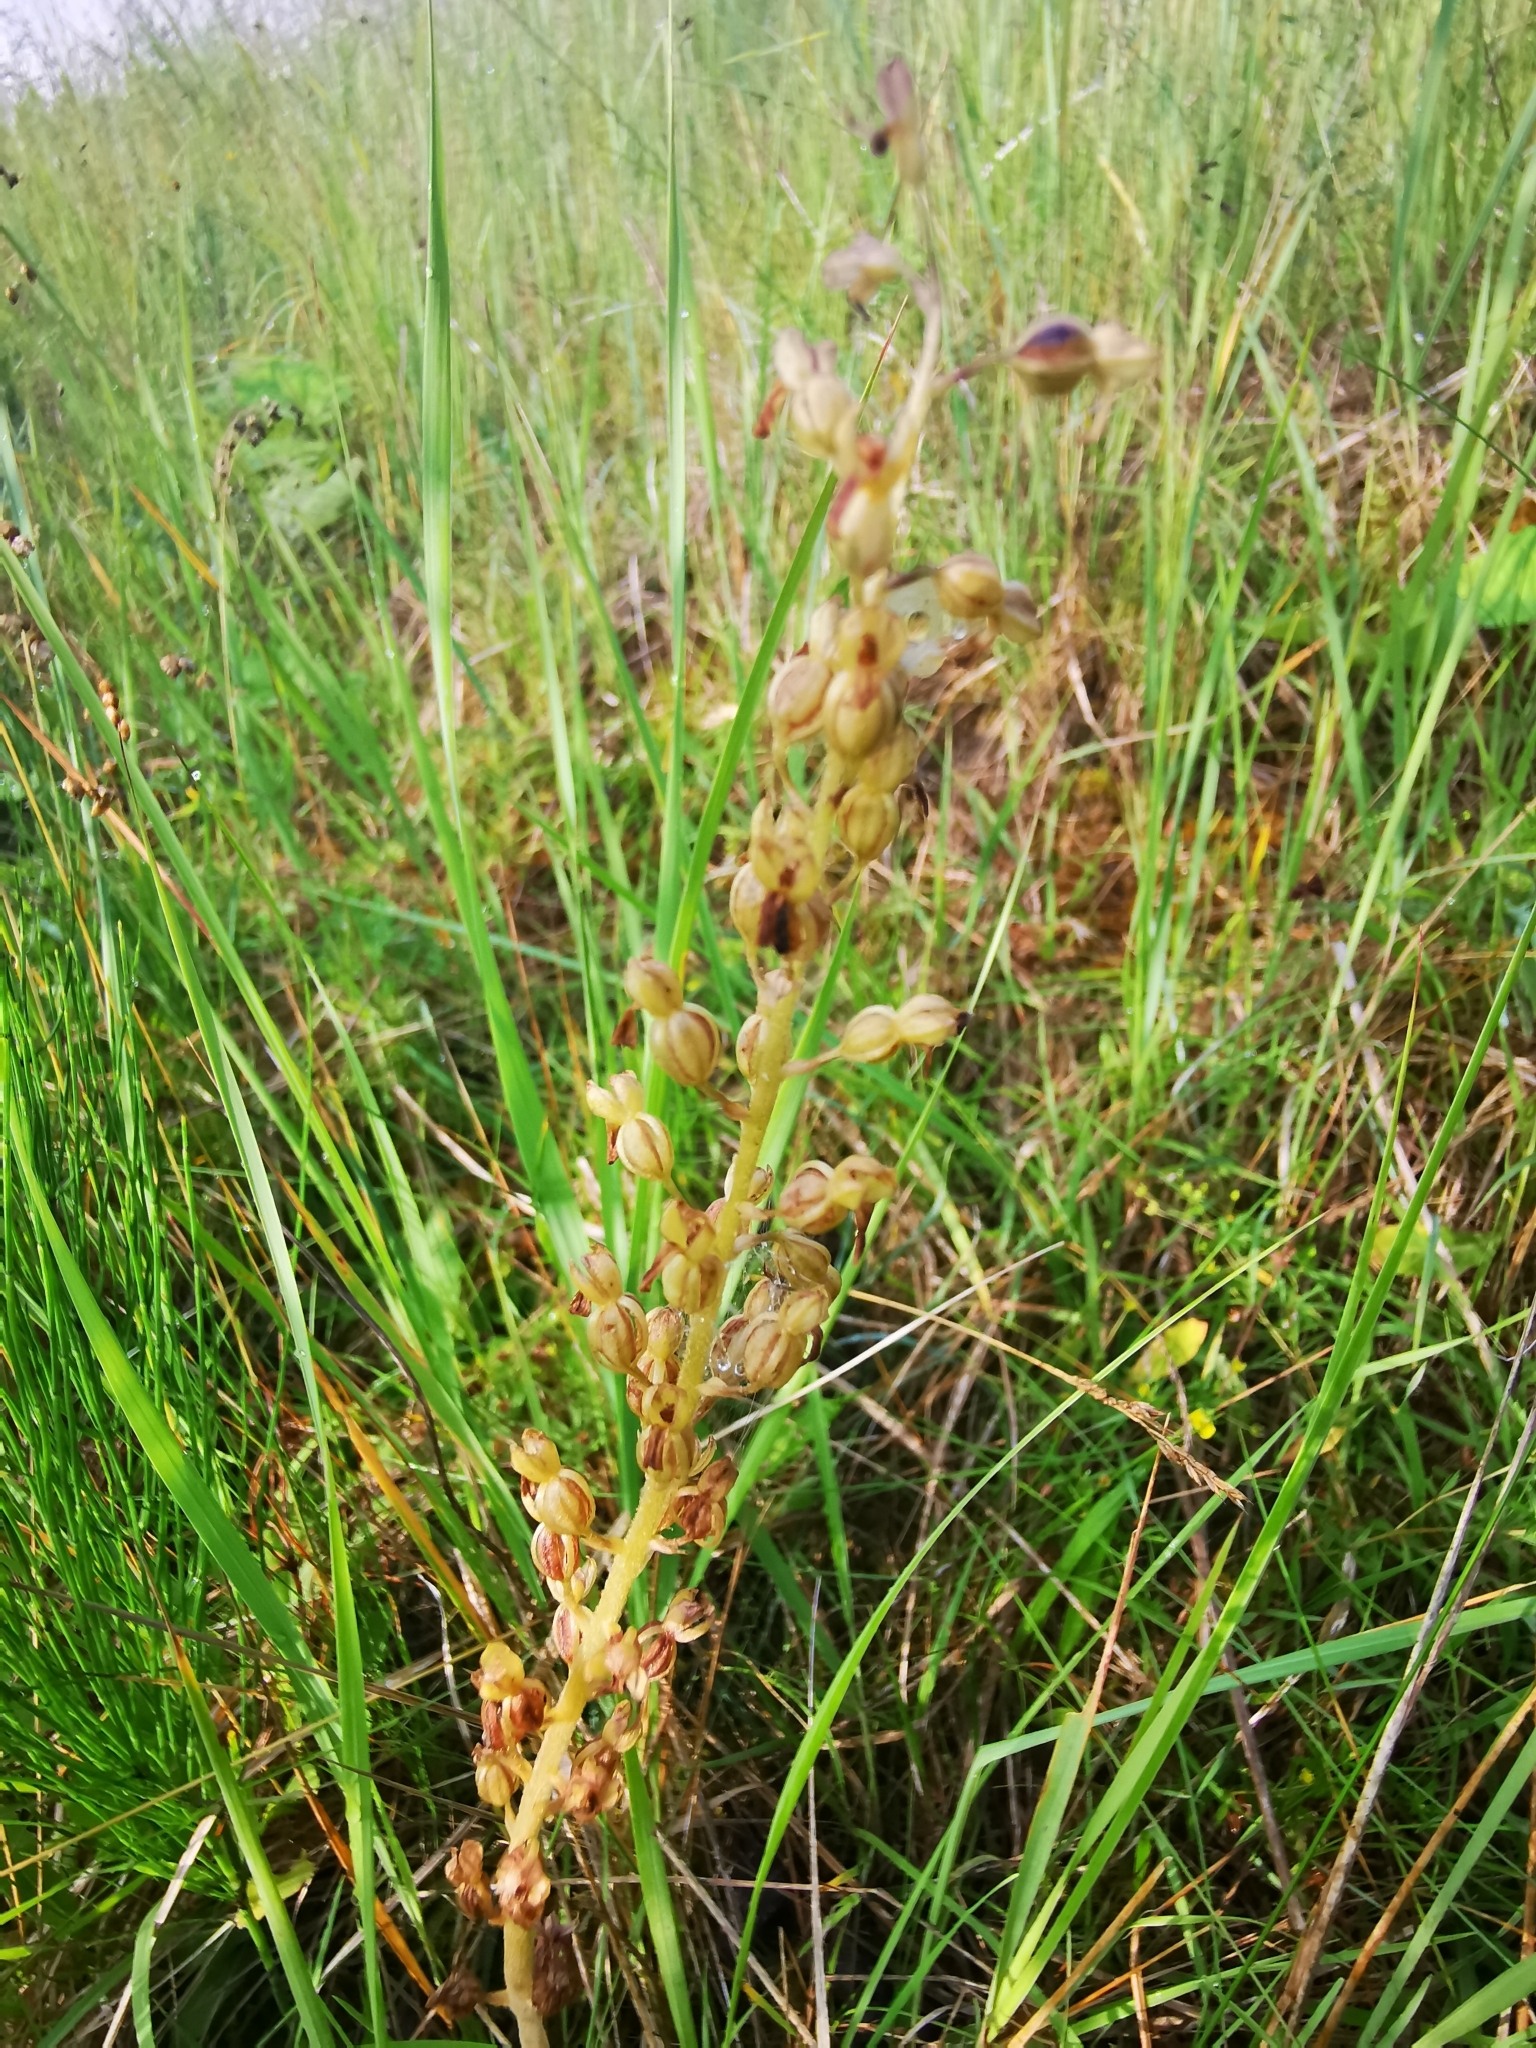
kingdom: Plantae
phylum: Tracheophyta
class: Liliopsida
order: Asparagales
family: Orchidaceae
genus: Neottia
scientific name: Neottia ovata
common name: Common twayblade
